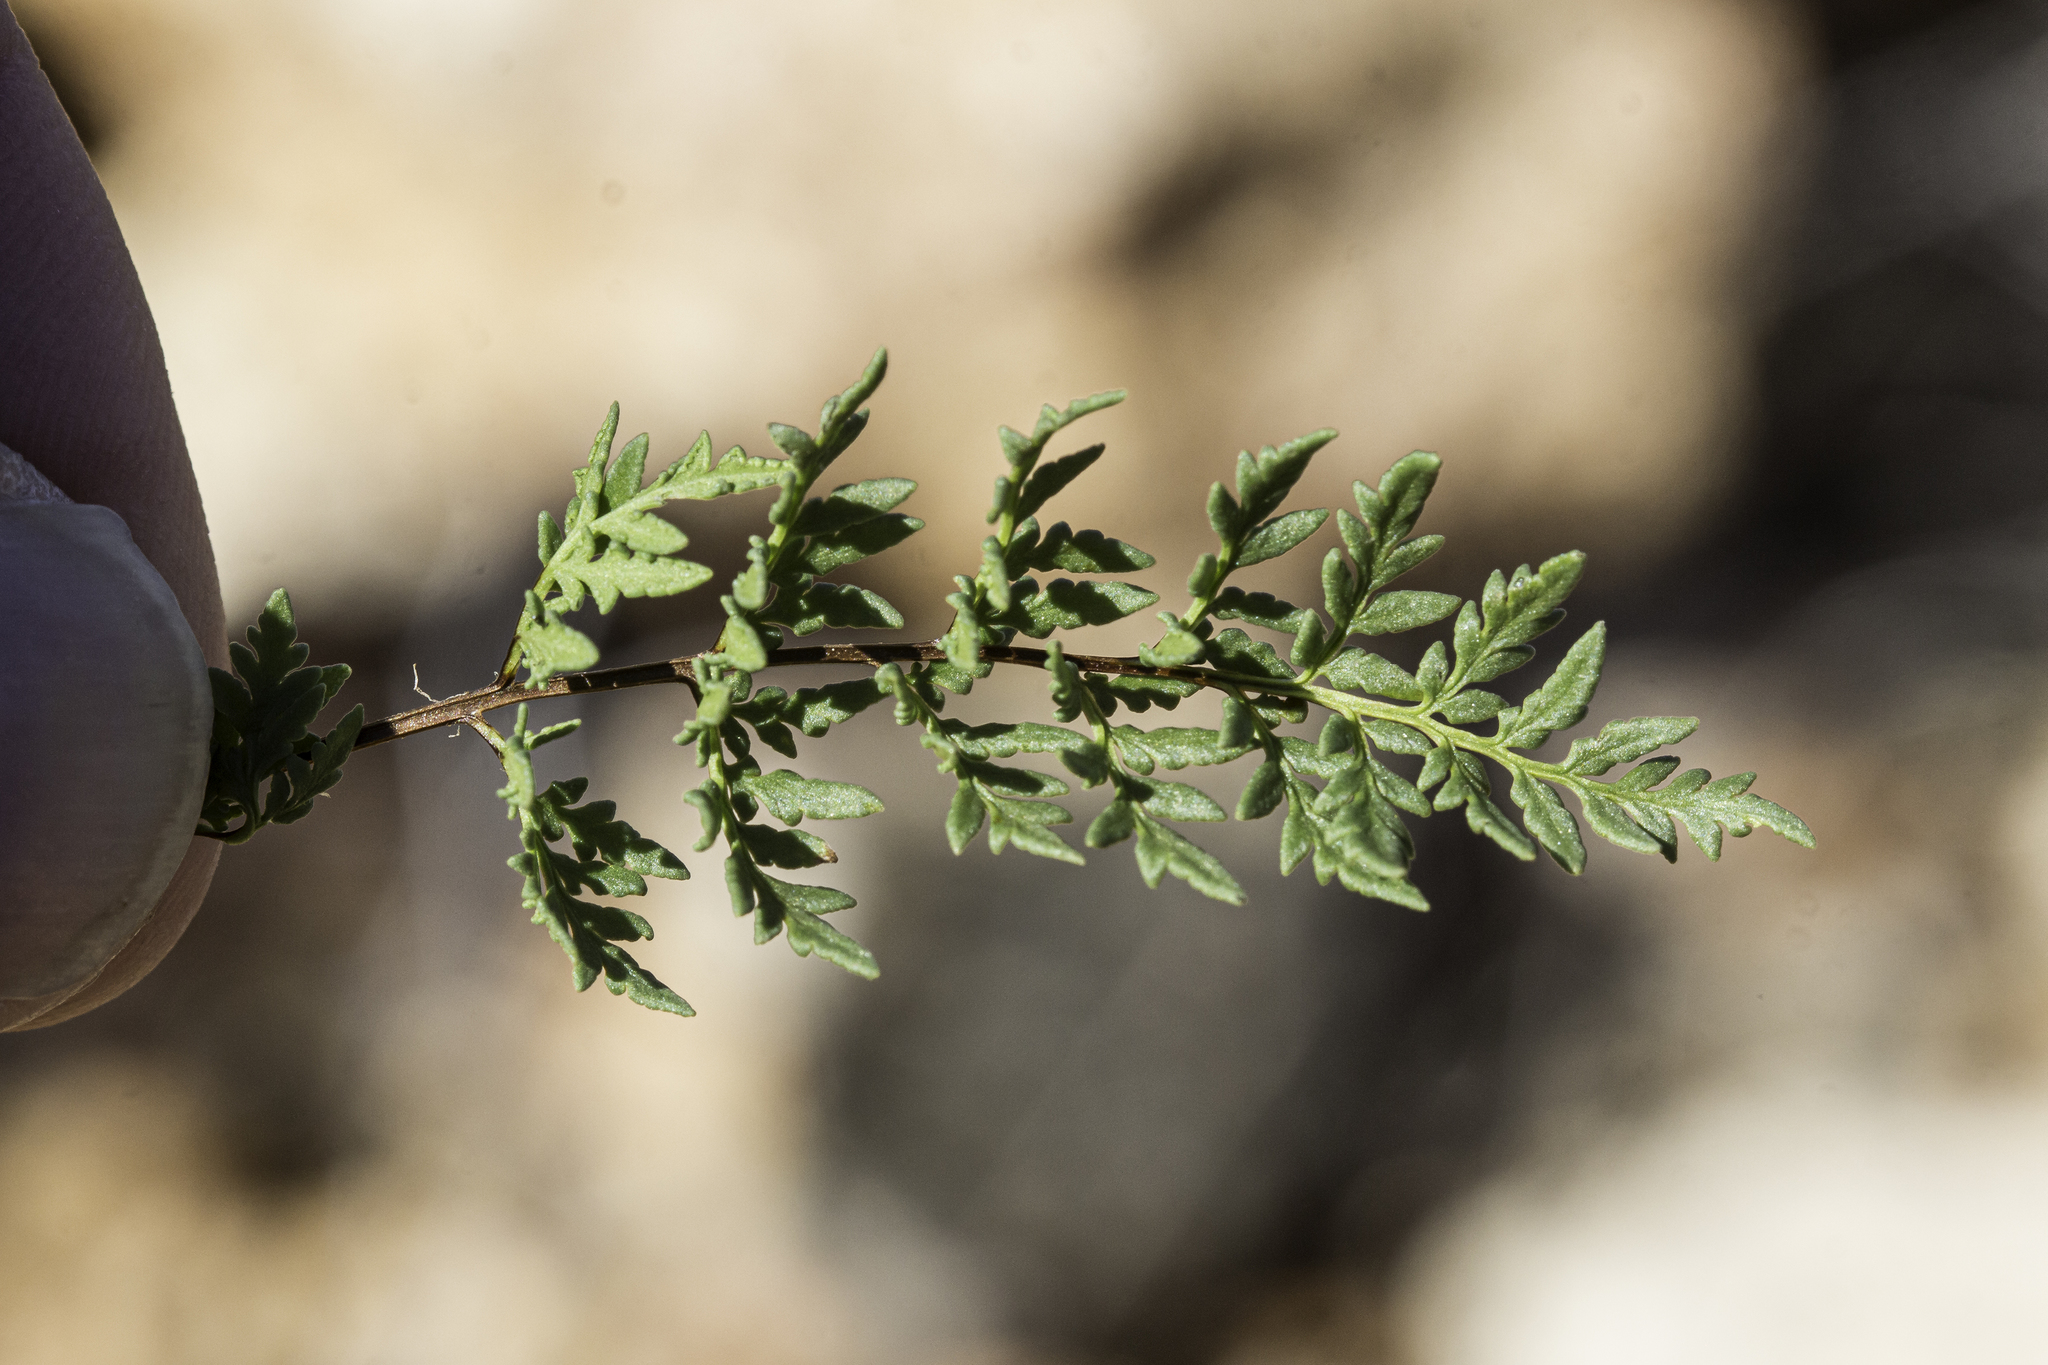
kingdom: Plantae
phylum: Tracheophyta
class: Polypodiopsida
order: Polypodiales
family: Pteridaceae
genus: Myriopteris
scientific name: Myriopteris wrightii
